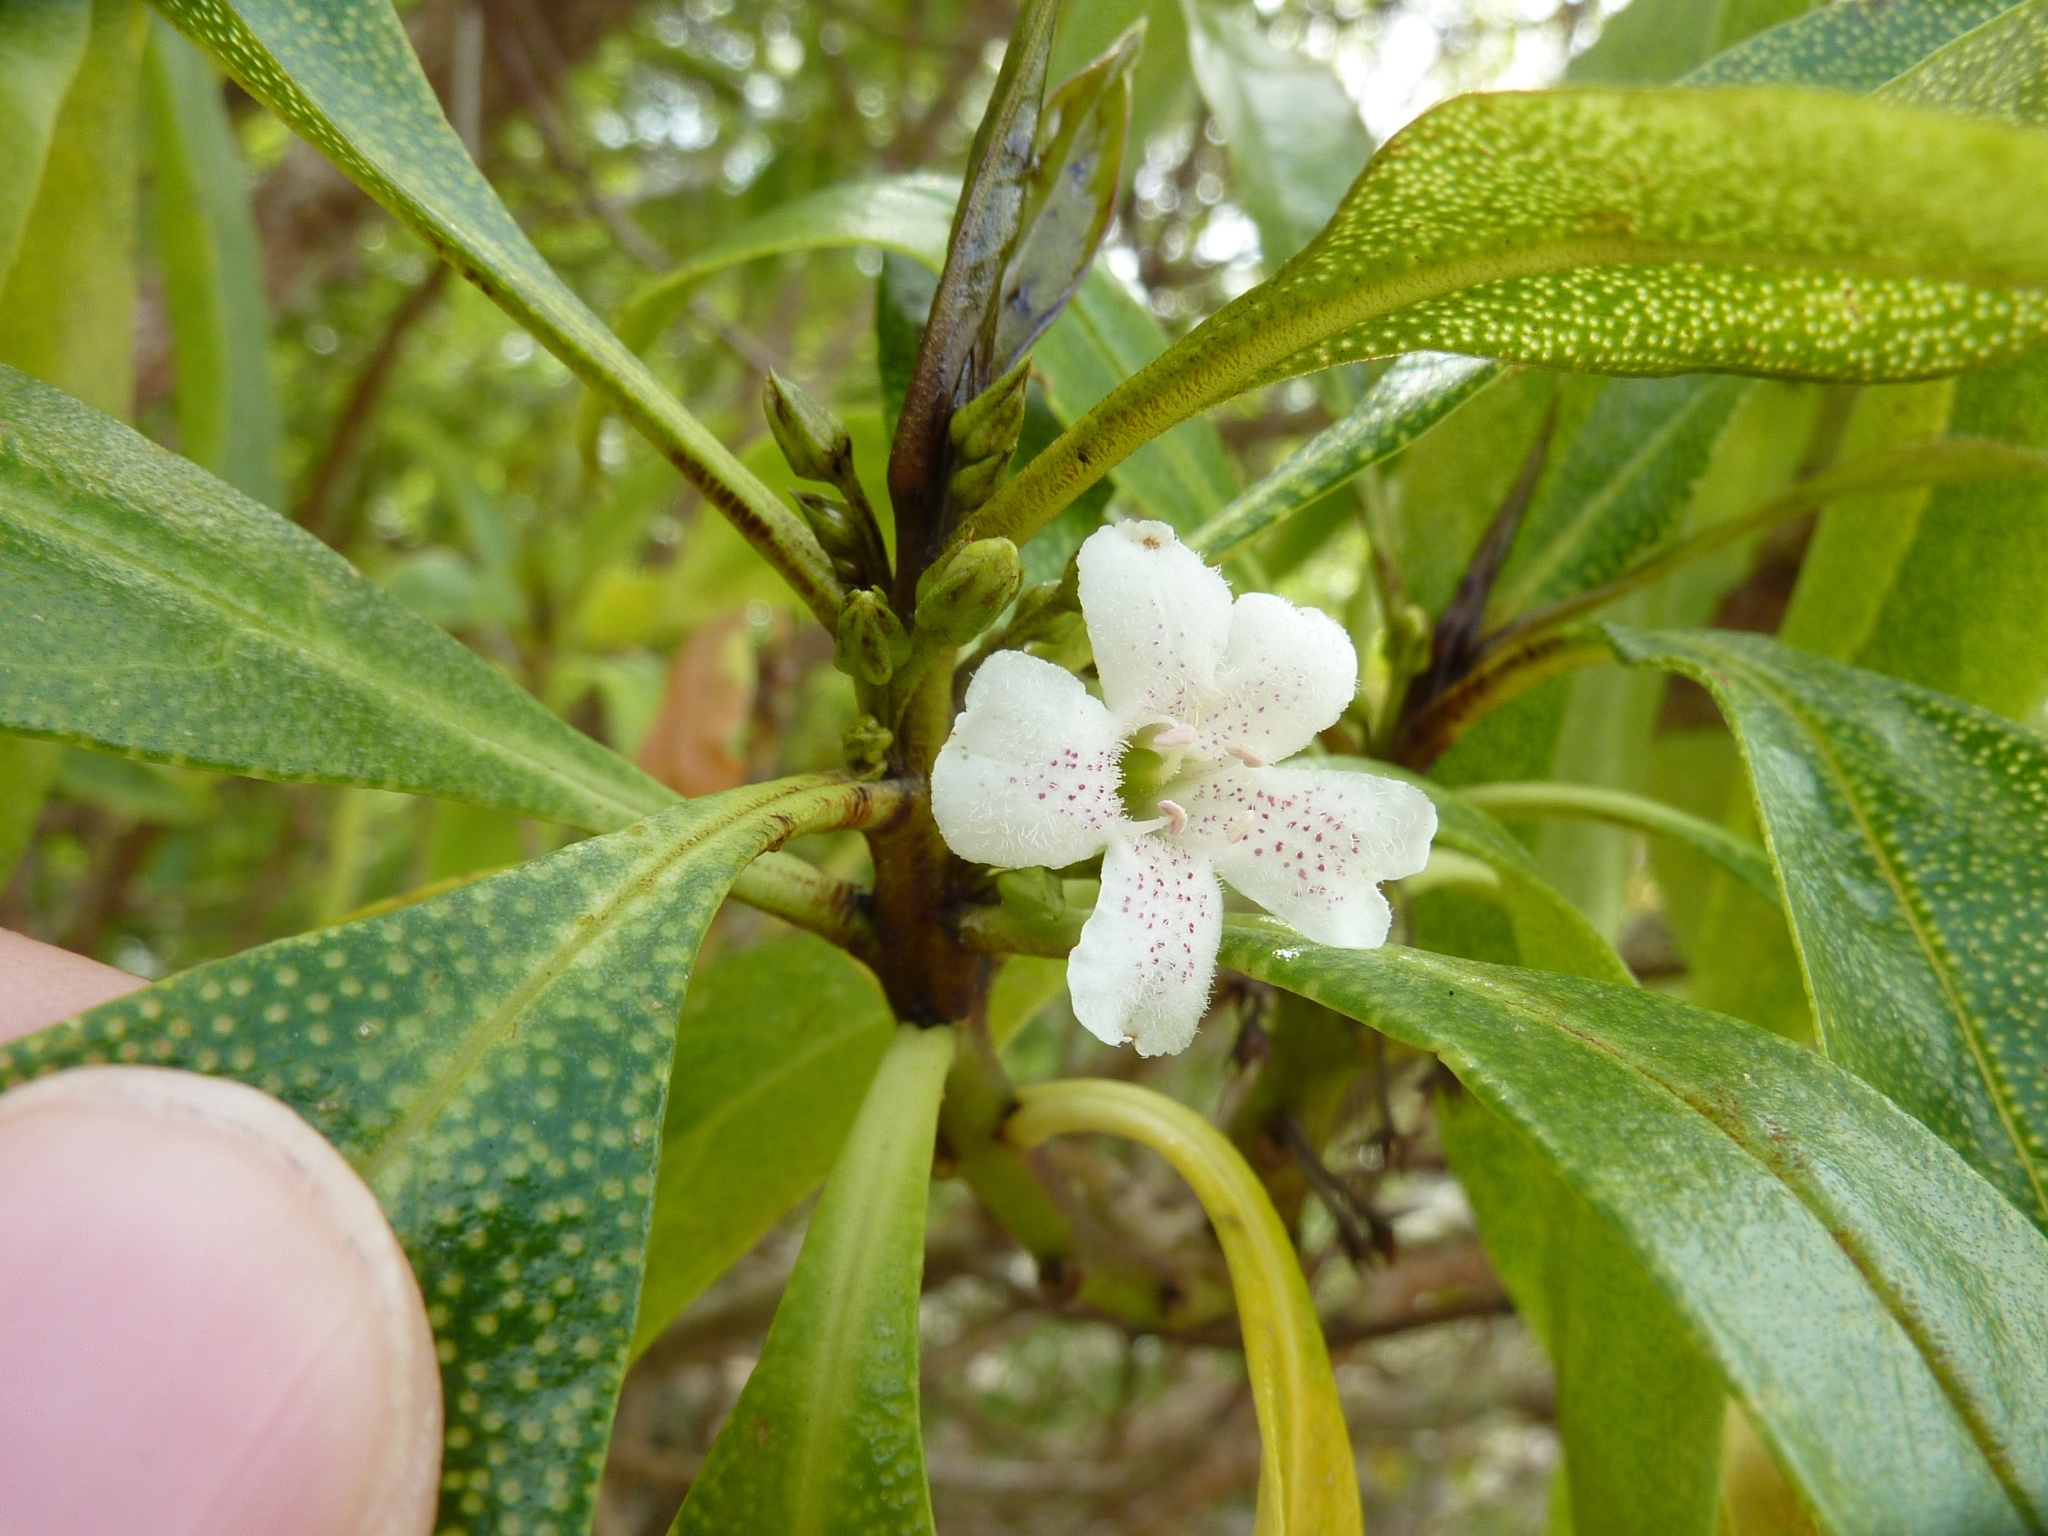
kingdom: Plantae
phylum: Tracheophyta
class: Magnoliopsida
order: Lamiales
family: Scrophulariaceae
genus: Myoporum
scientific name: Myoporum laetum
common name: Ngaio tree
